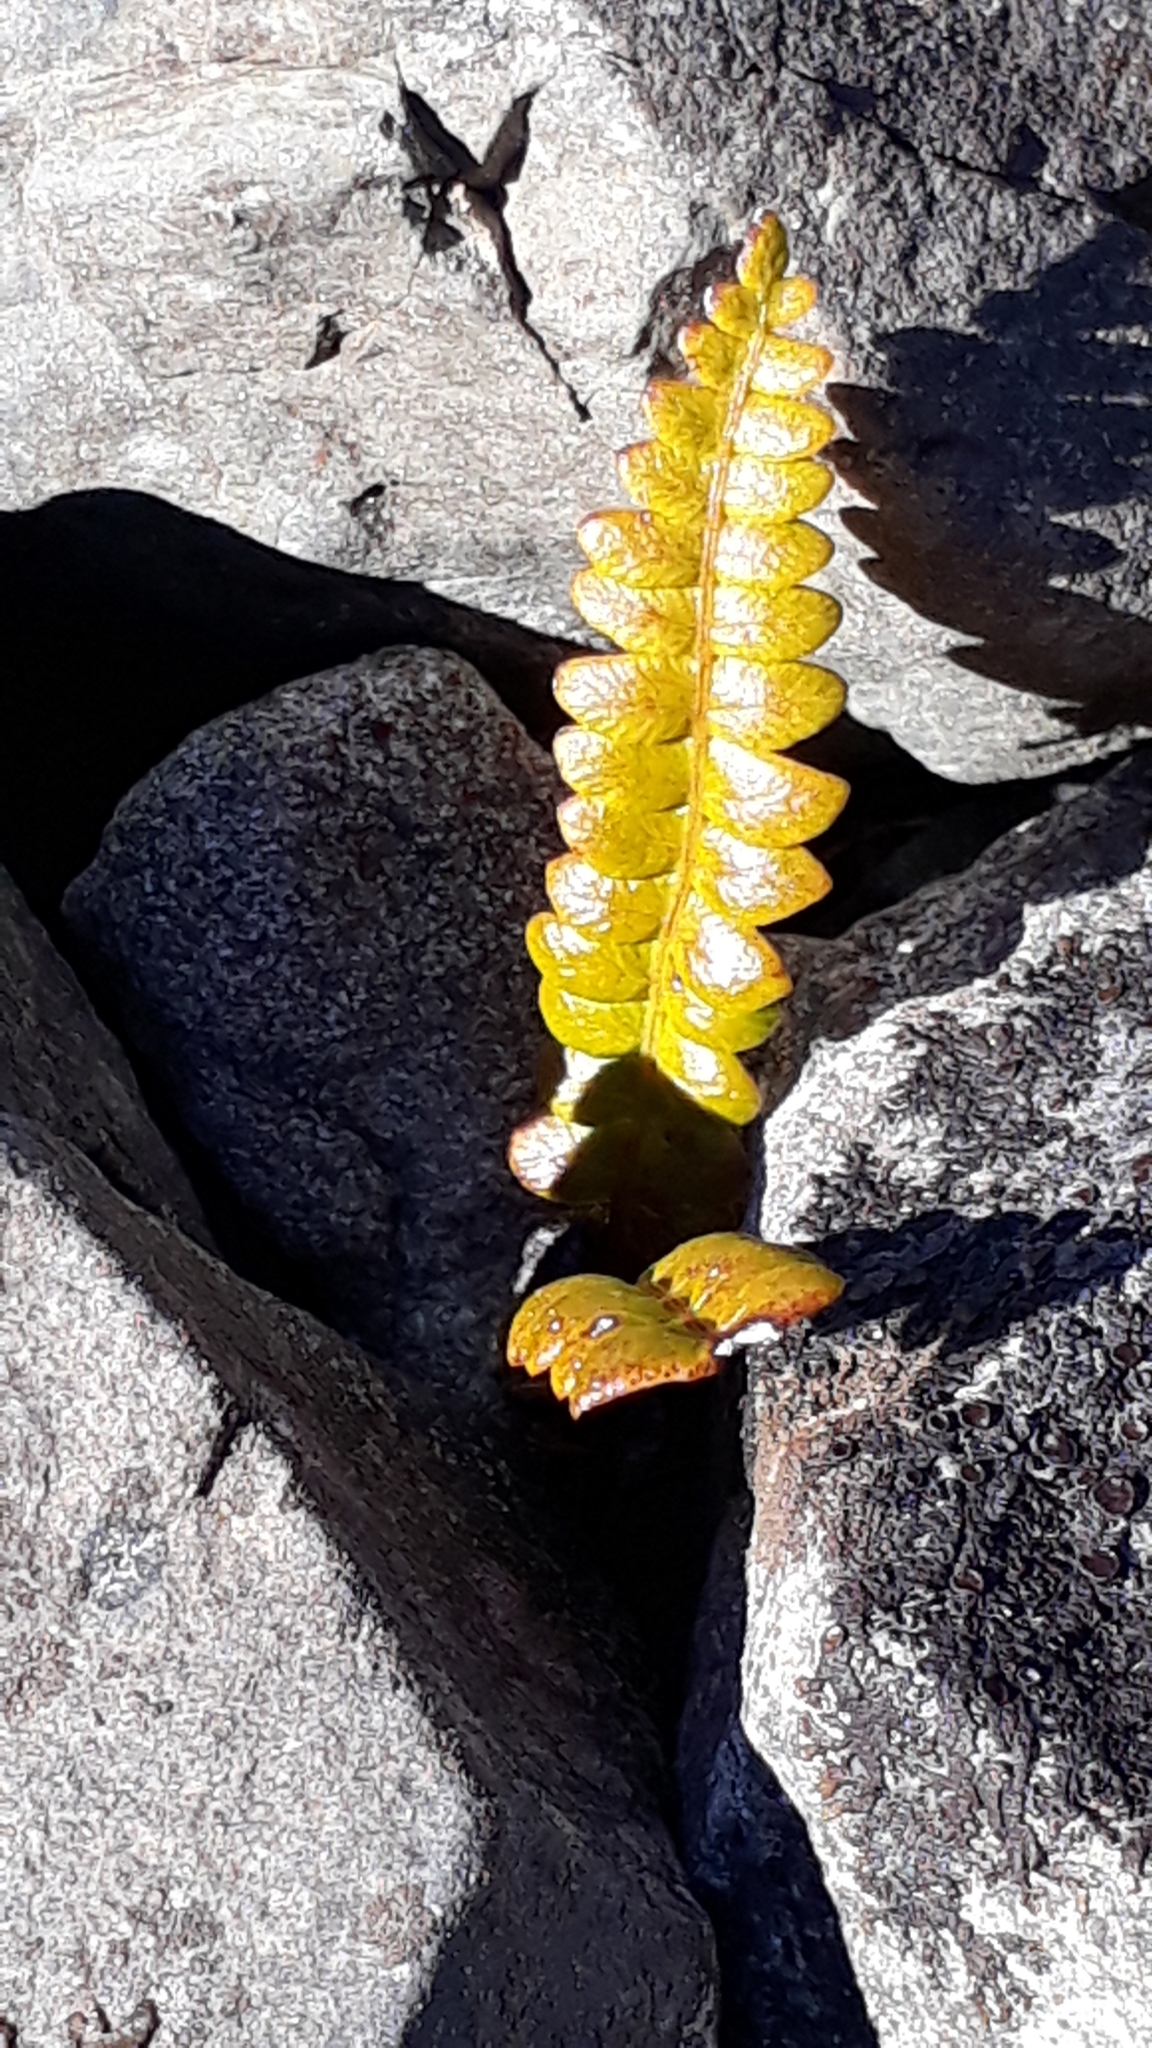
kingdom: Plantae
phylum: Tracheophyta
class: Polypodiopsida
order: Polypodiales
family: Blechnaceae
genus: Austroblechnum
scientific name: Austroblechnum penna-marina
